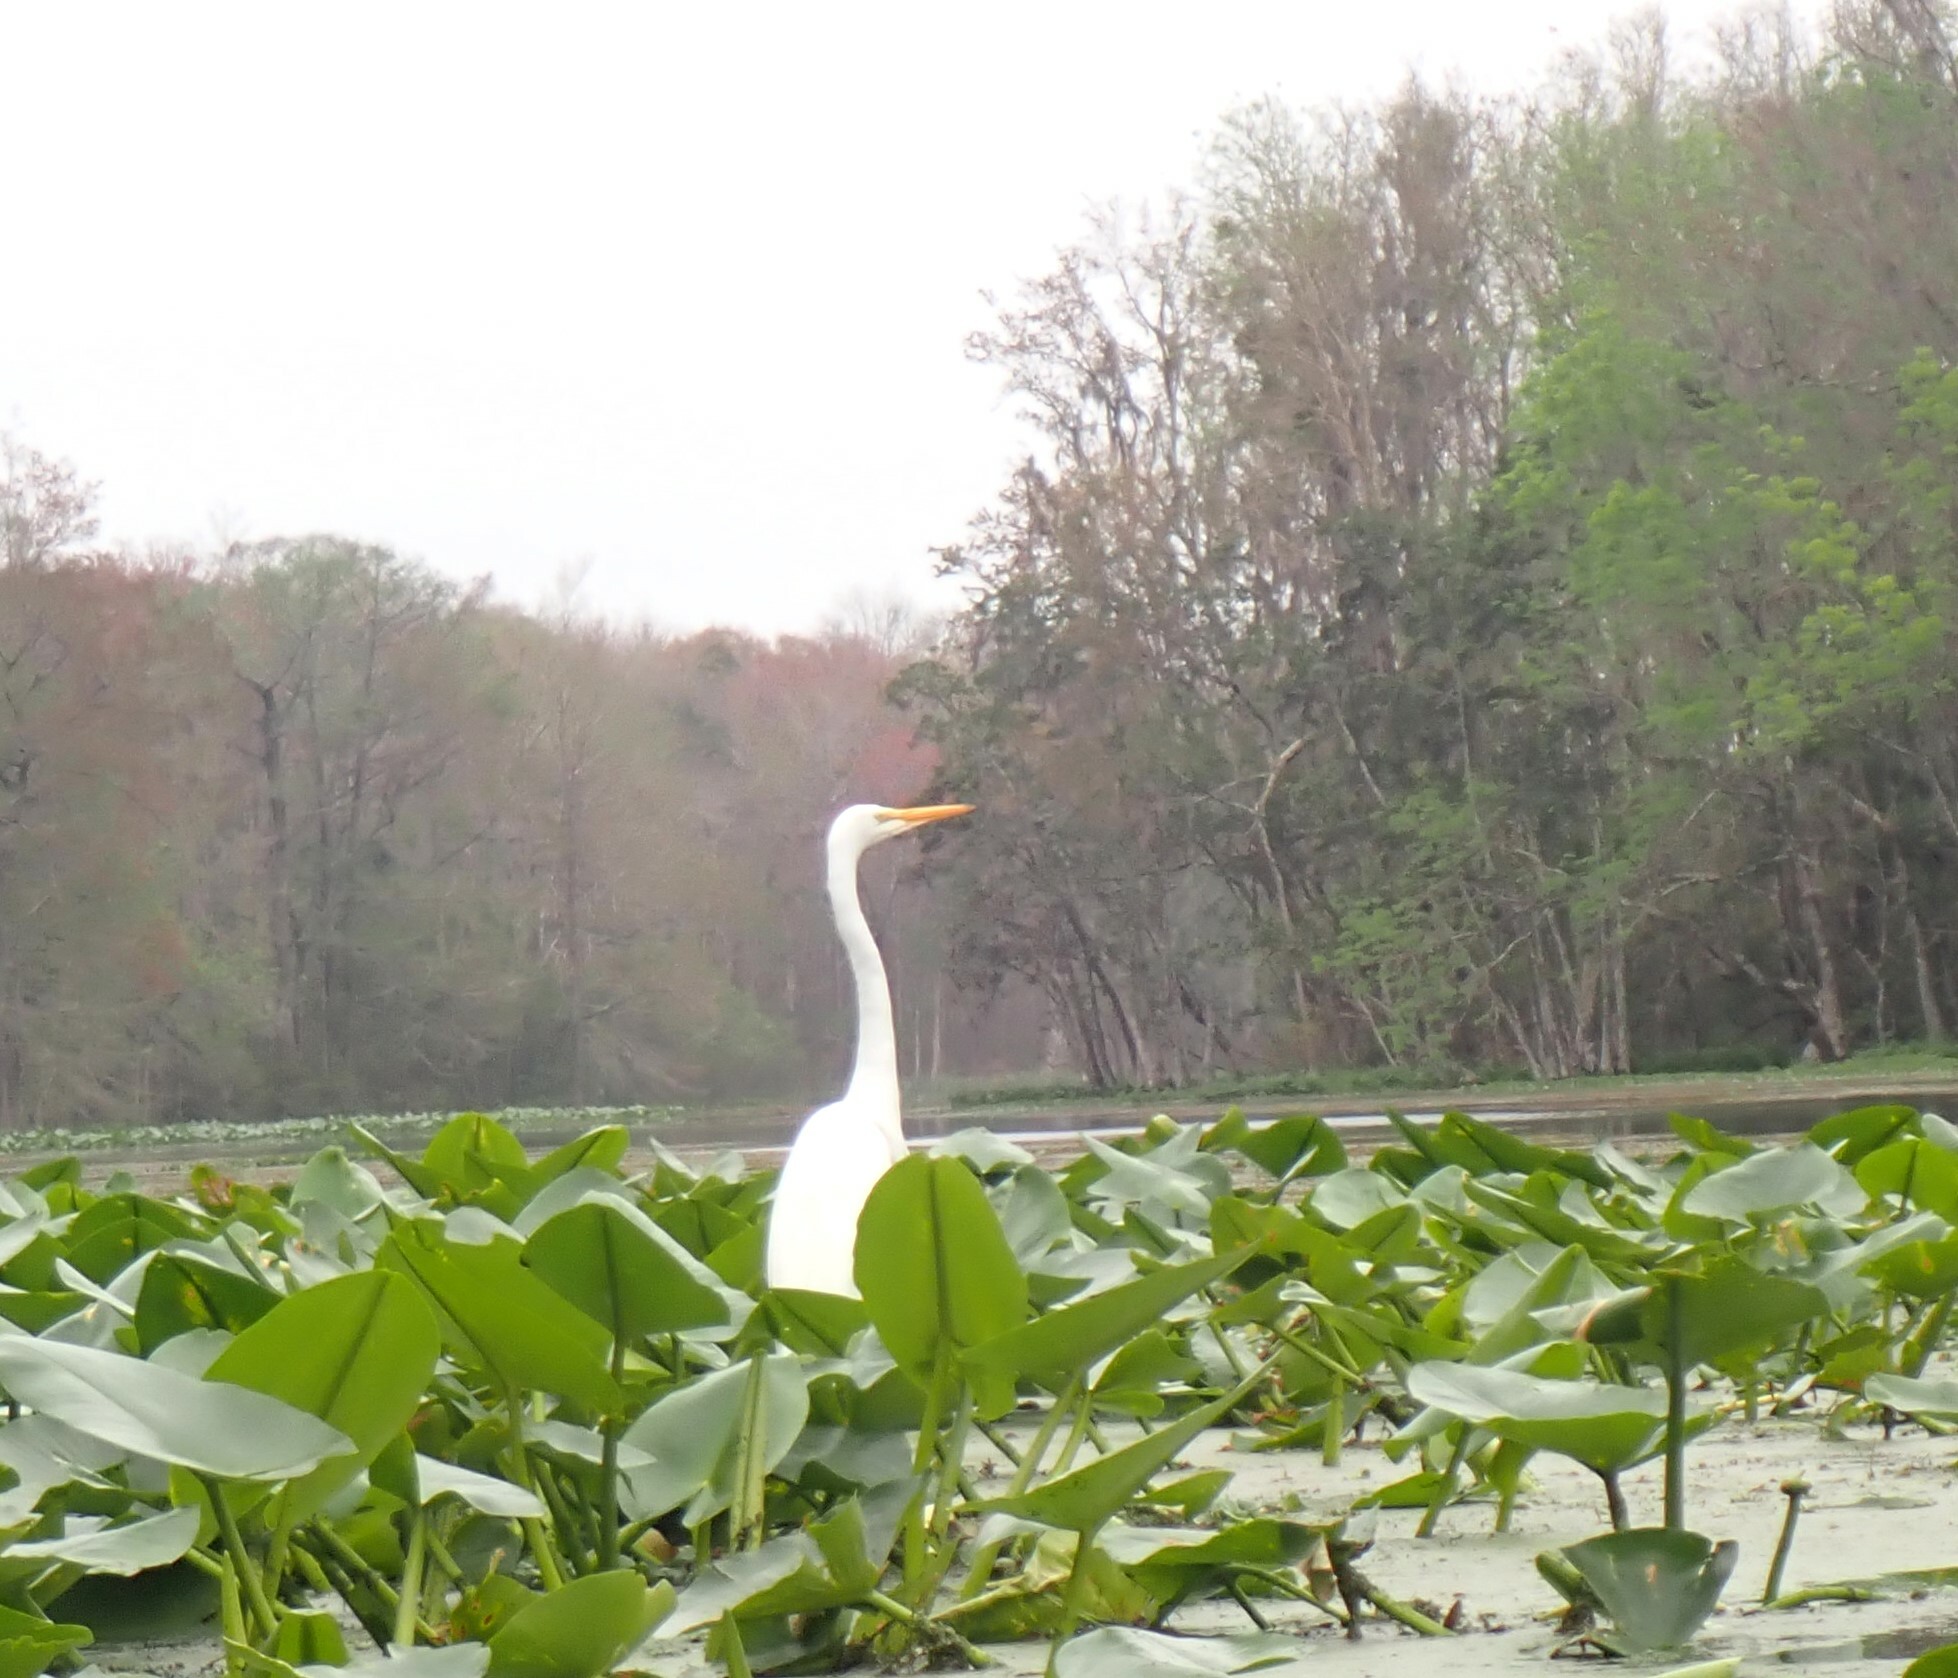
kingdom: Animalia
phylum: Chordata
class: Aves
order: Pelecaniformes
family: Ardeidae
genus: Ardea
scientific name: Ardea alba
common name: Great egret
